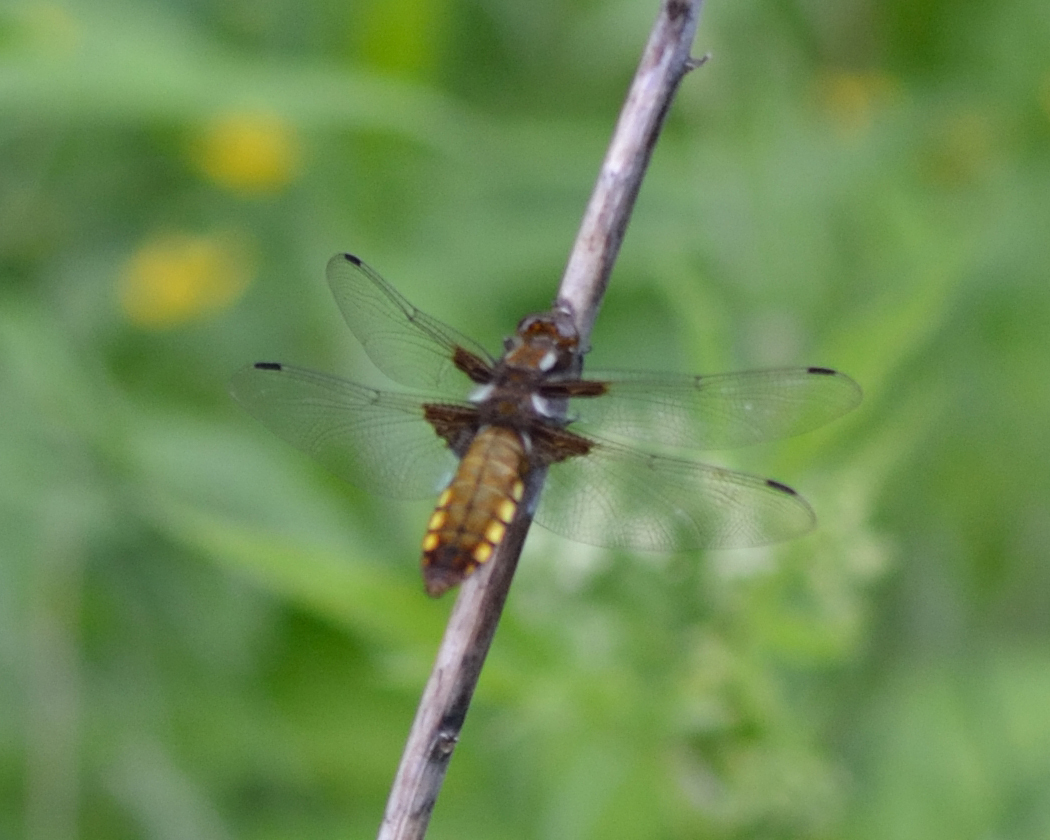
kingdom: Animalia
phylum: Arthropoda
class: Insecta
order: Odonata
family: Libellulidae
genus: Libellula
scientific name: Libellula depressa
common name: Broad-bodied chaser
